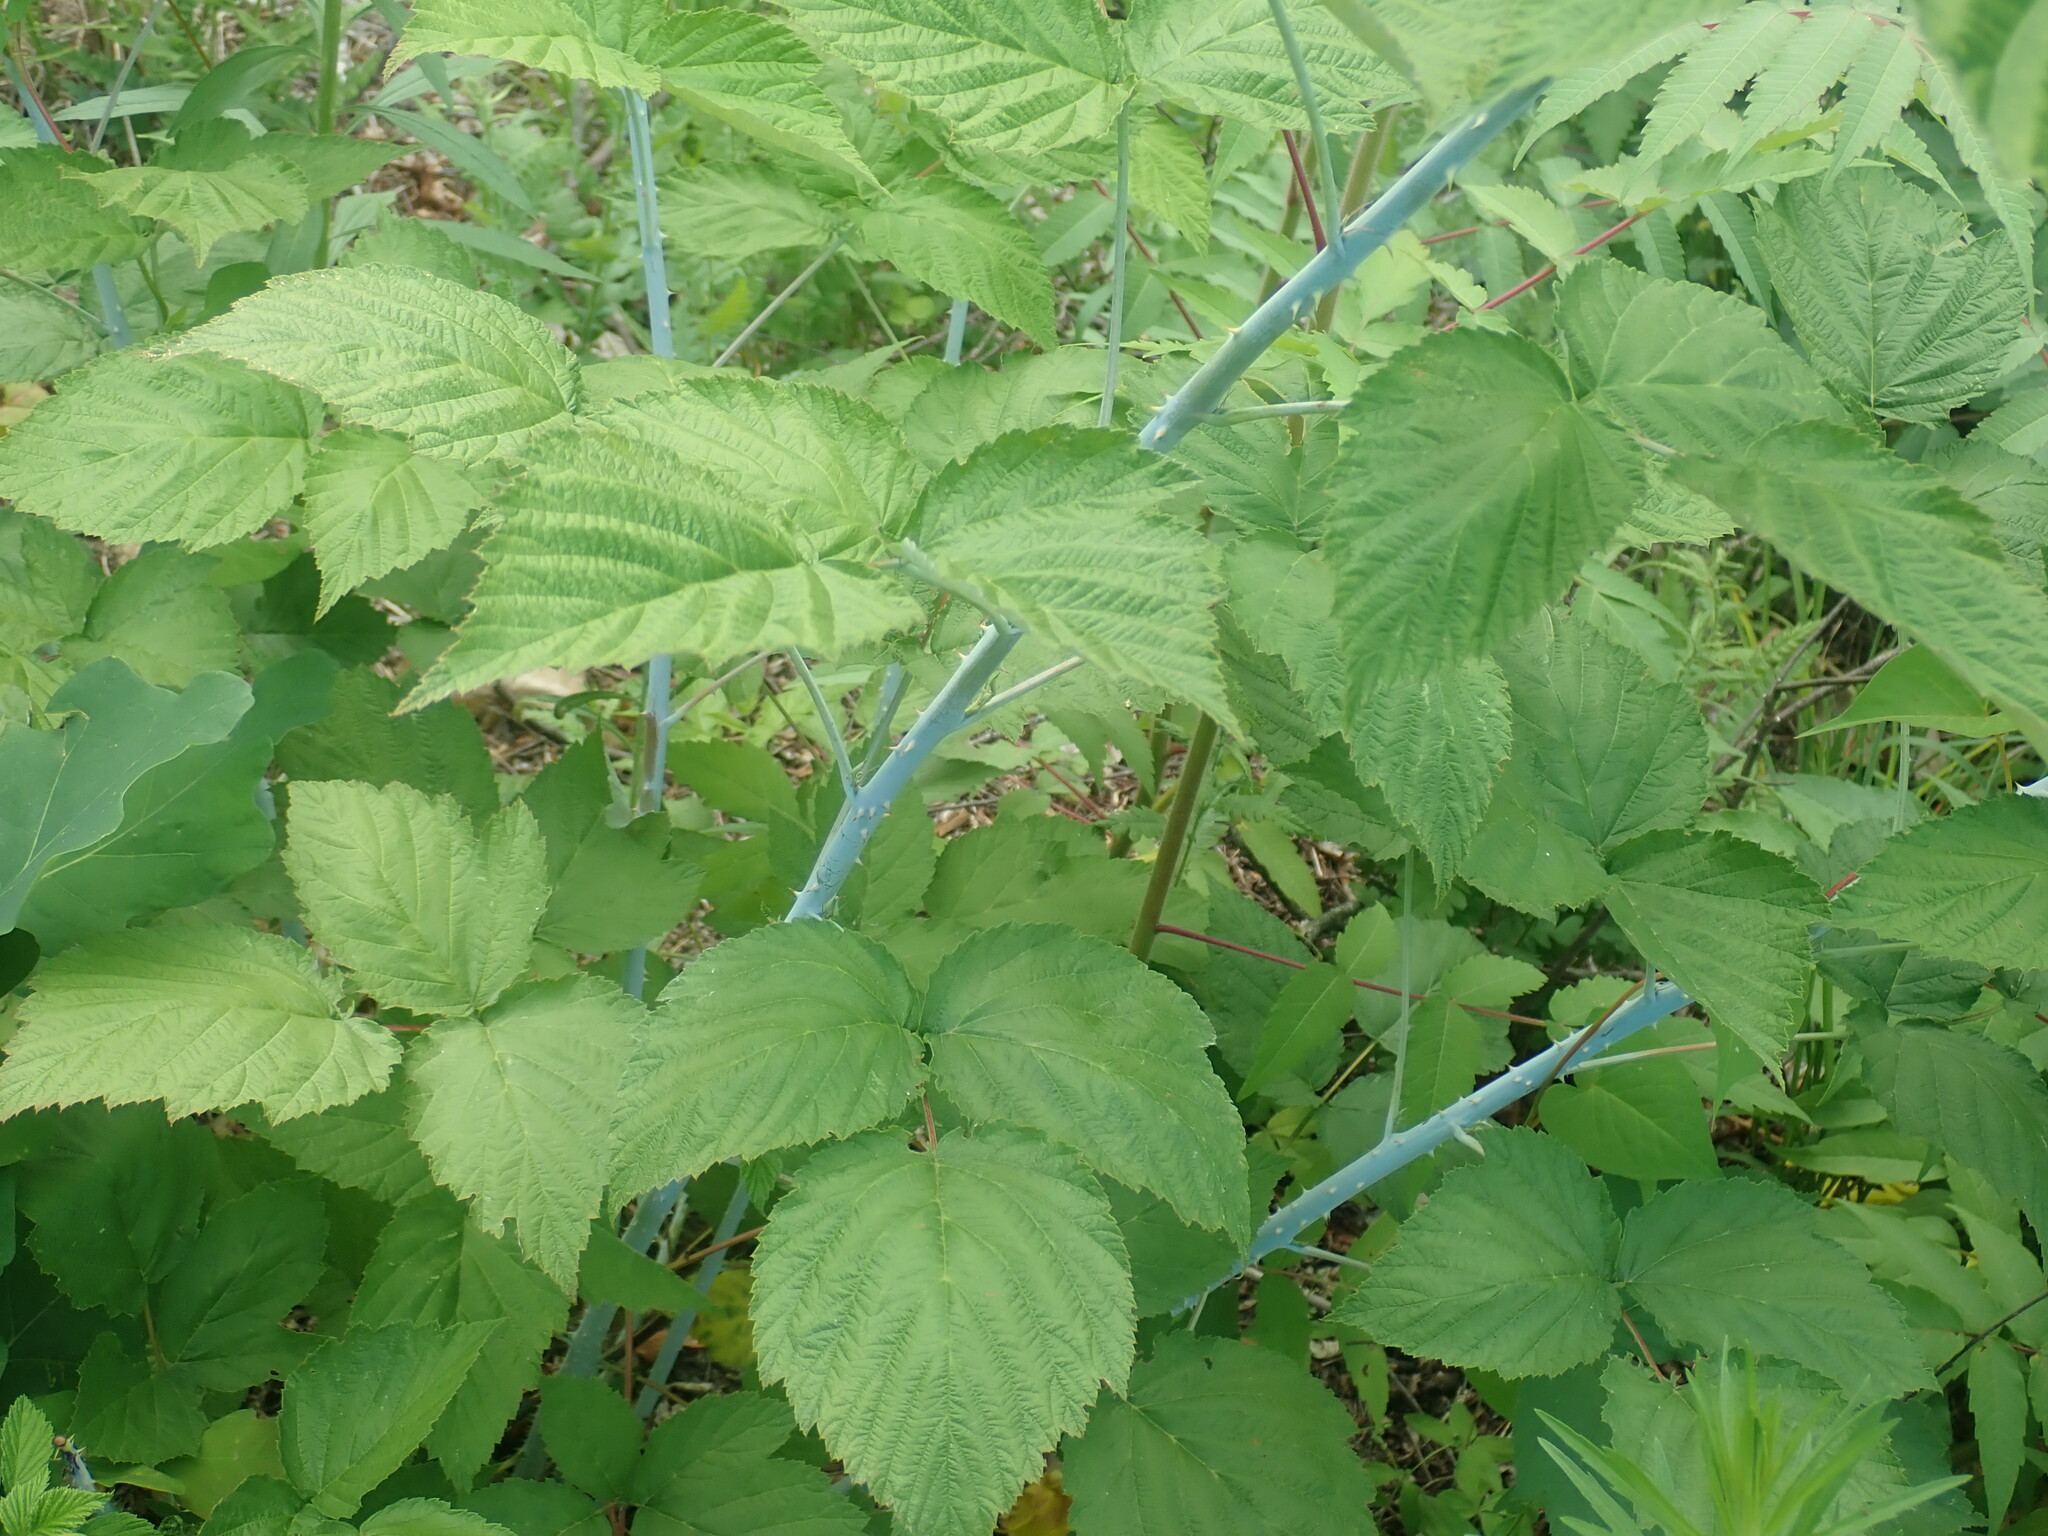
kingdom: Plantae
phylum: Tracheophyta
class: Magnoliopsida
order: Rosales
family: Rosaceae
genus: Rubus
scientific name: Rubus occidentalis
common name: Black raspberry
